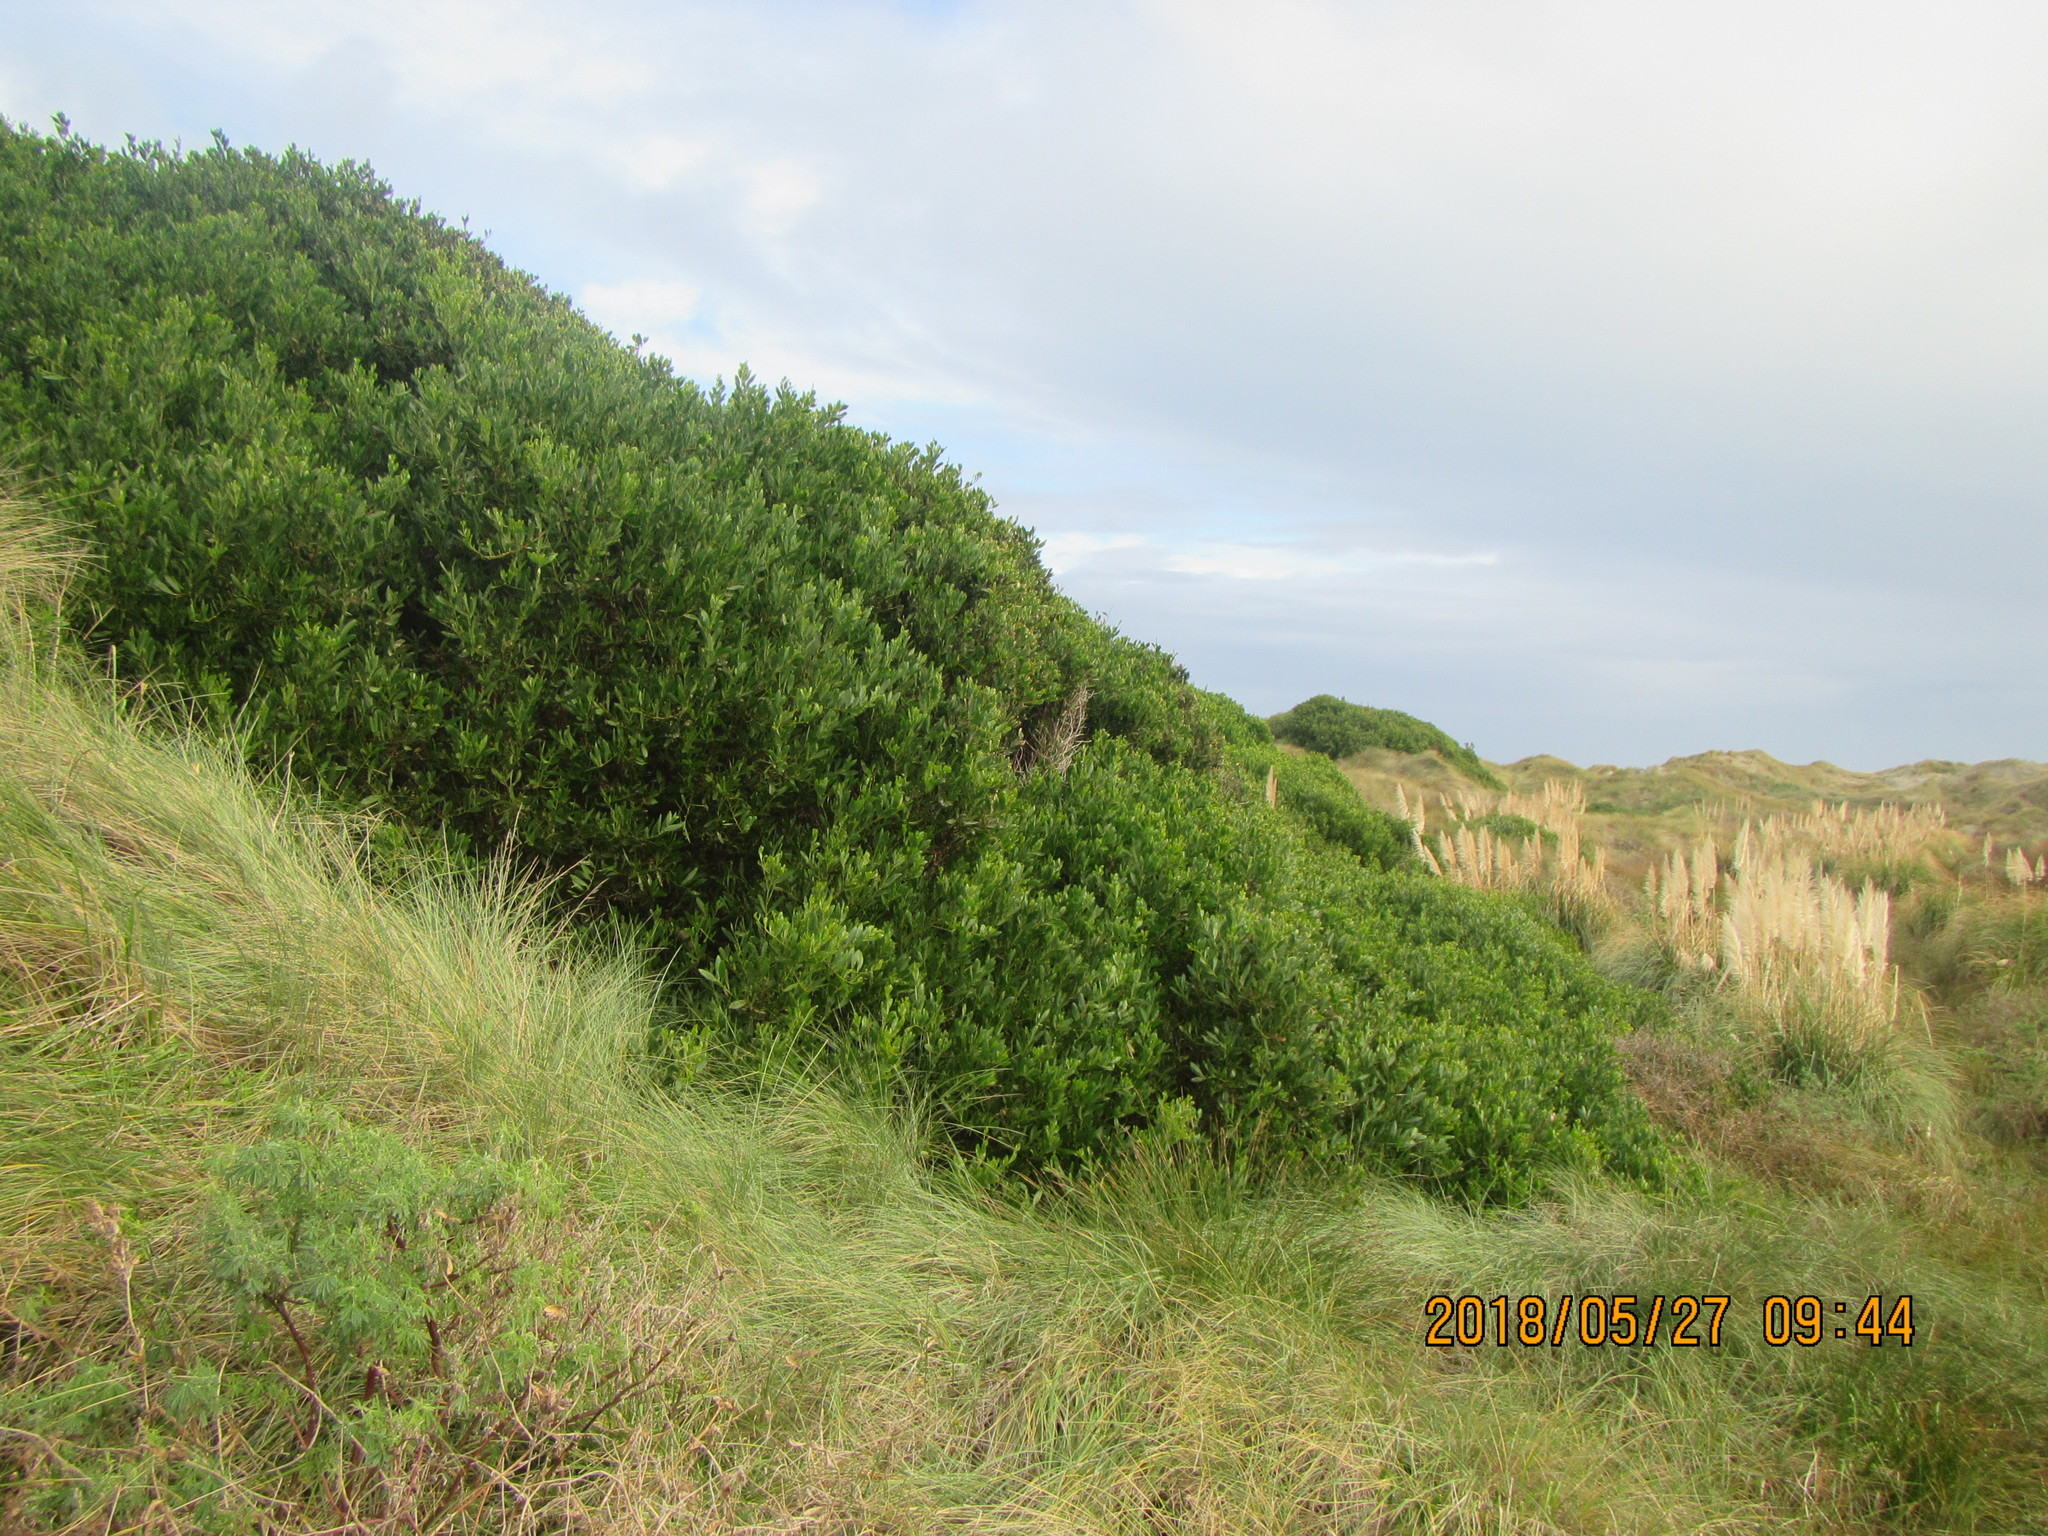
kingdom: Plantae
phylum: Tracheophyta
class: Magnoliopsida
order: Fabales
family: Fabaceae
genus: Acacia
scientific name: Acacia longifolia
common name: Sydney golden wattle
